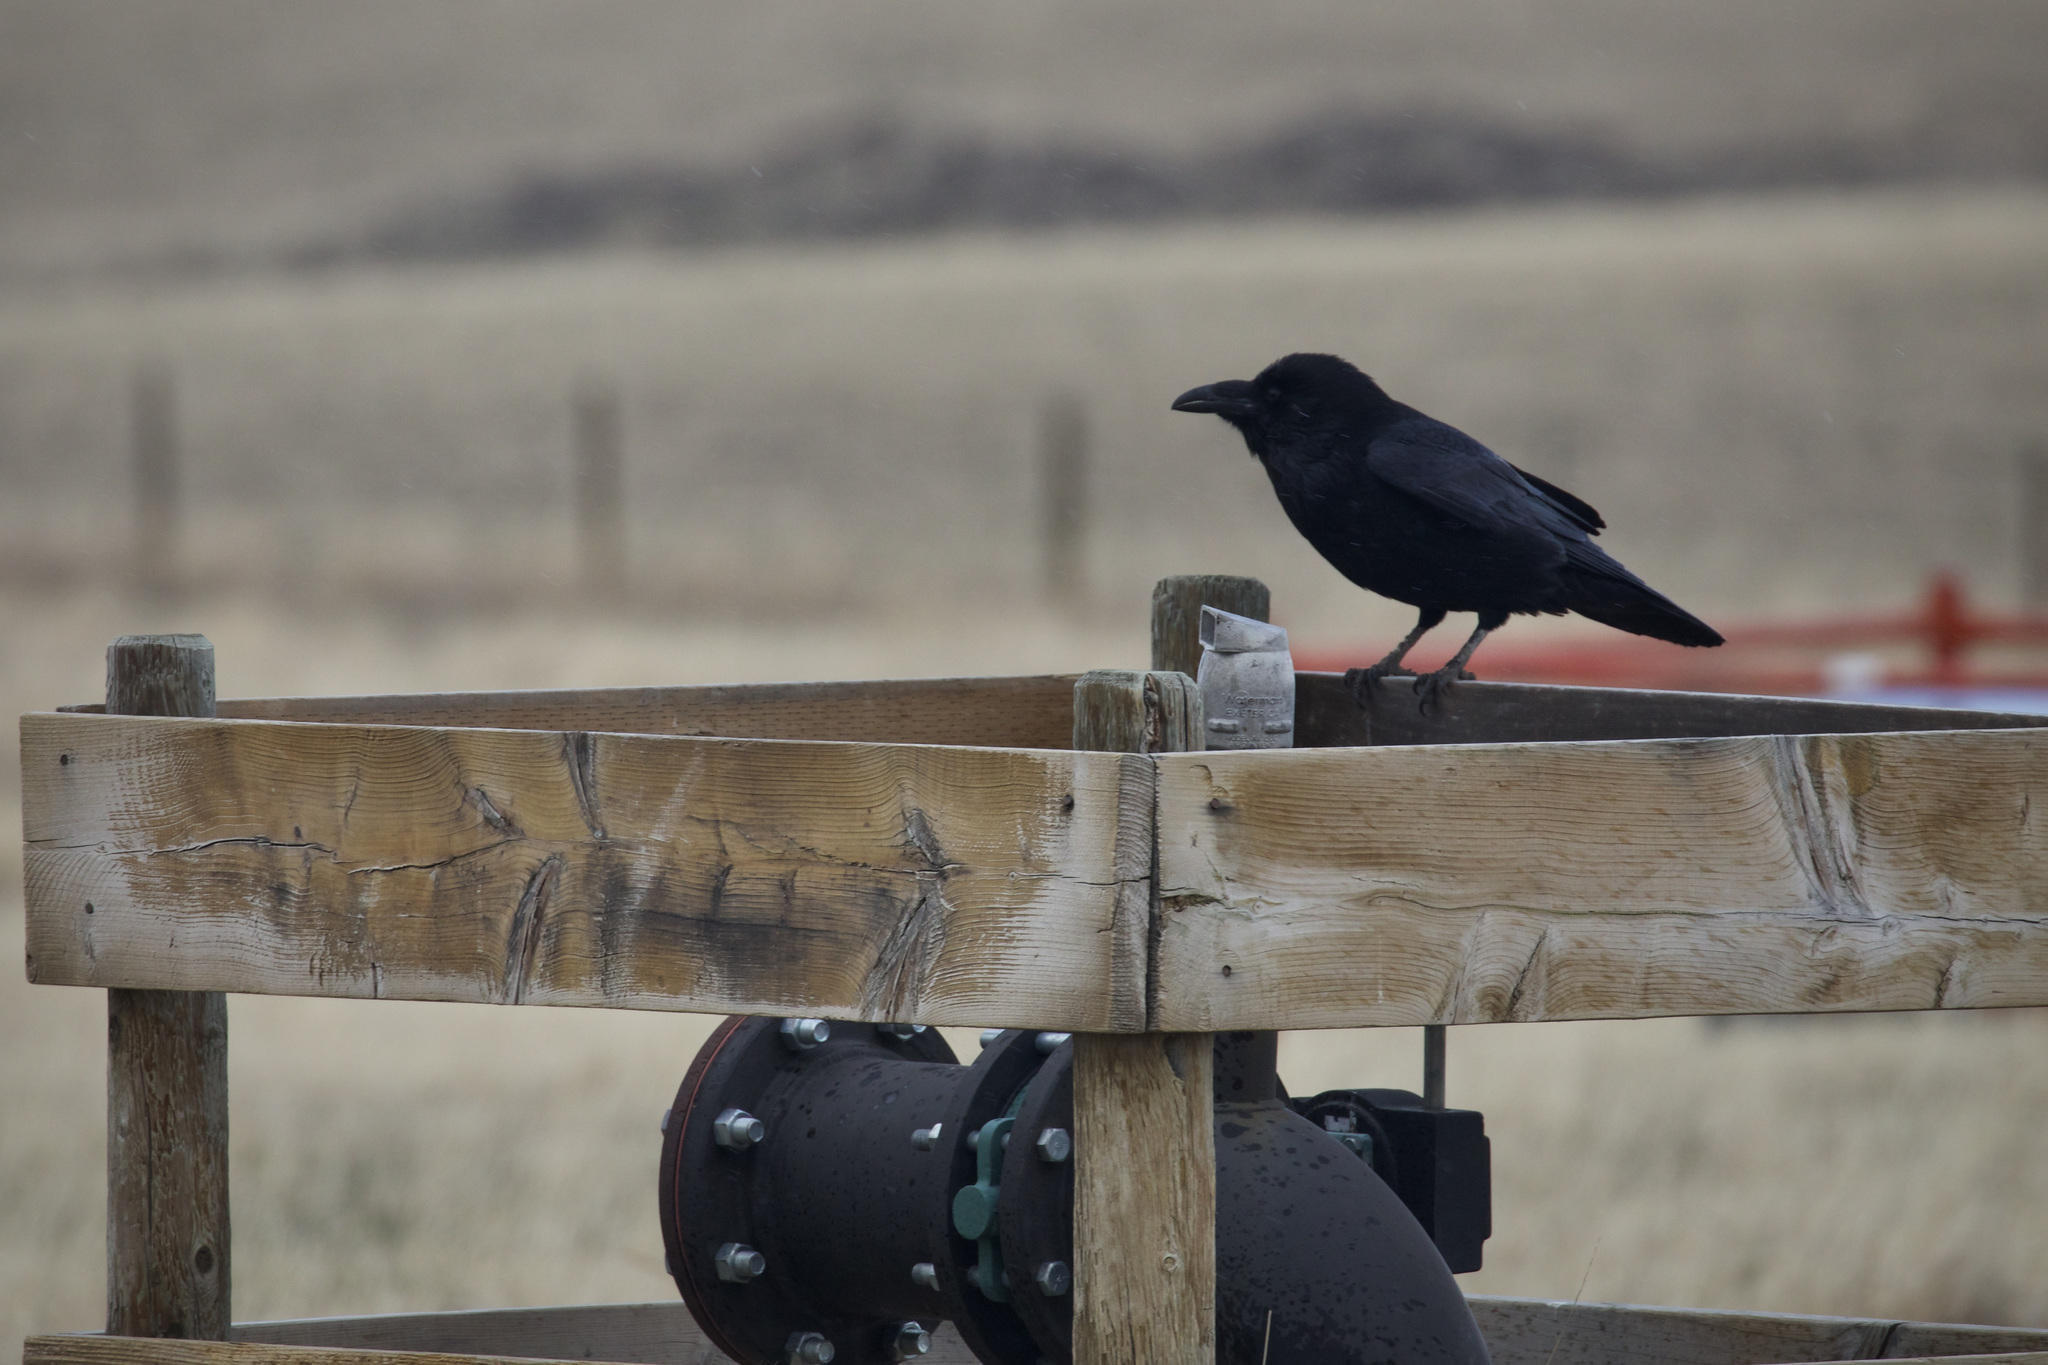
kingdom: Animalia
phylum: Chordata
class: Aves
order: Passeriformes
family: Corvidae
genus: Corvus
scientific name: Corvus corax
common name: Common raven
